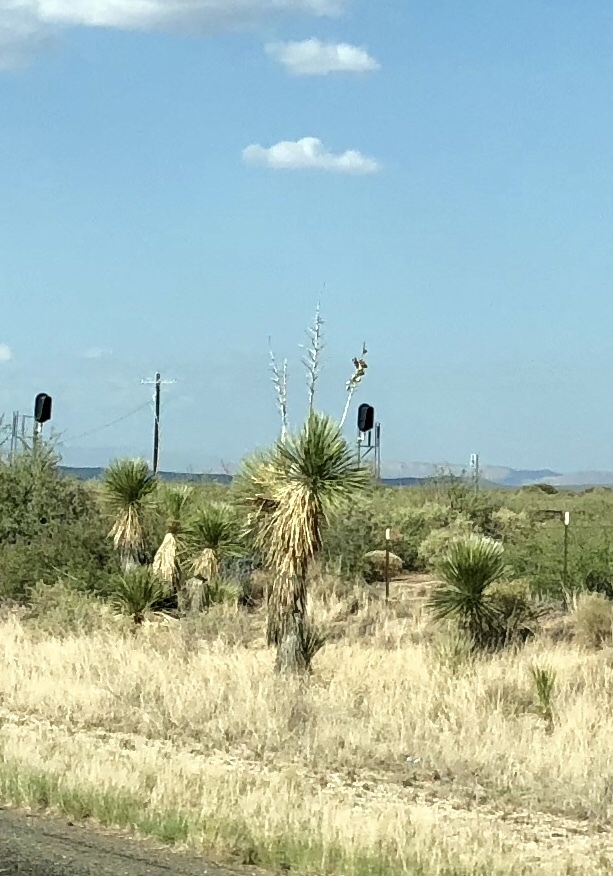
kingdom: Plantae
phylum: Tracheophyta
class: Liliopsida
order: Asparagales
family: Asparagaceae
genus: Yucca
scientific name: Yucca elata
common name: Palmella
